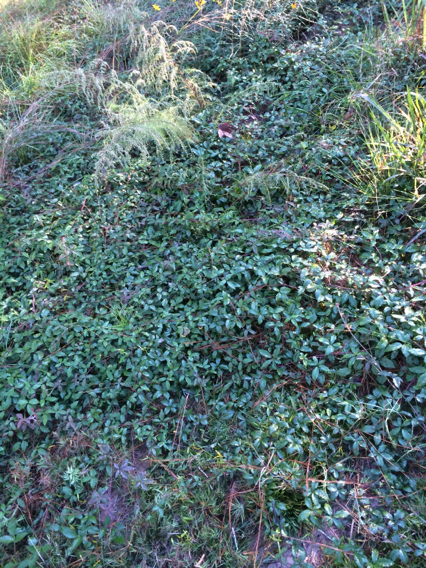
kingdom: Plantae
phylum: Tracheophyta
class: Magnoliopsida
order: Rosales
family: Rosaceae
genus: Rubus
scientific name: Rubus trivialis
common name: Southern dewberry
